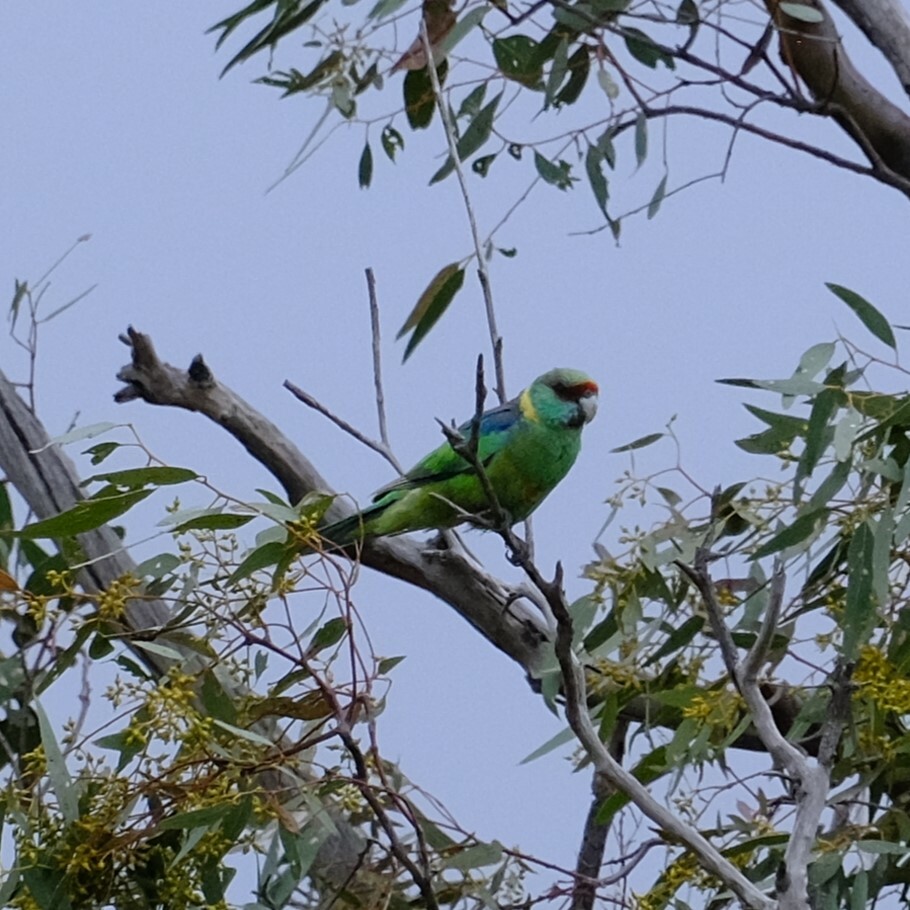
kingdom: Animalia
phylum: Chordata
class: Aves
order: Psittaciformes
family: Psittacidae
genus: Barnardius
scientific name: Barnardius zonarius
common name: Australian ringneck
